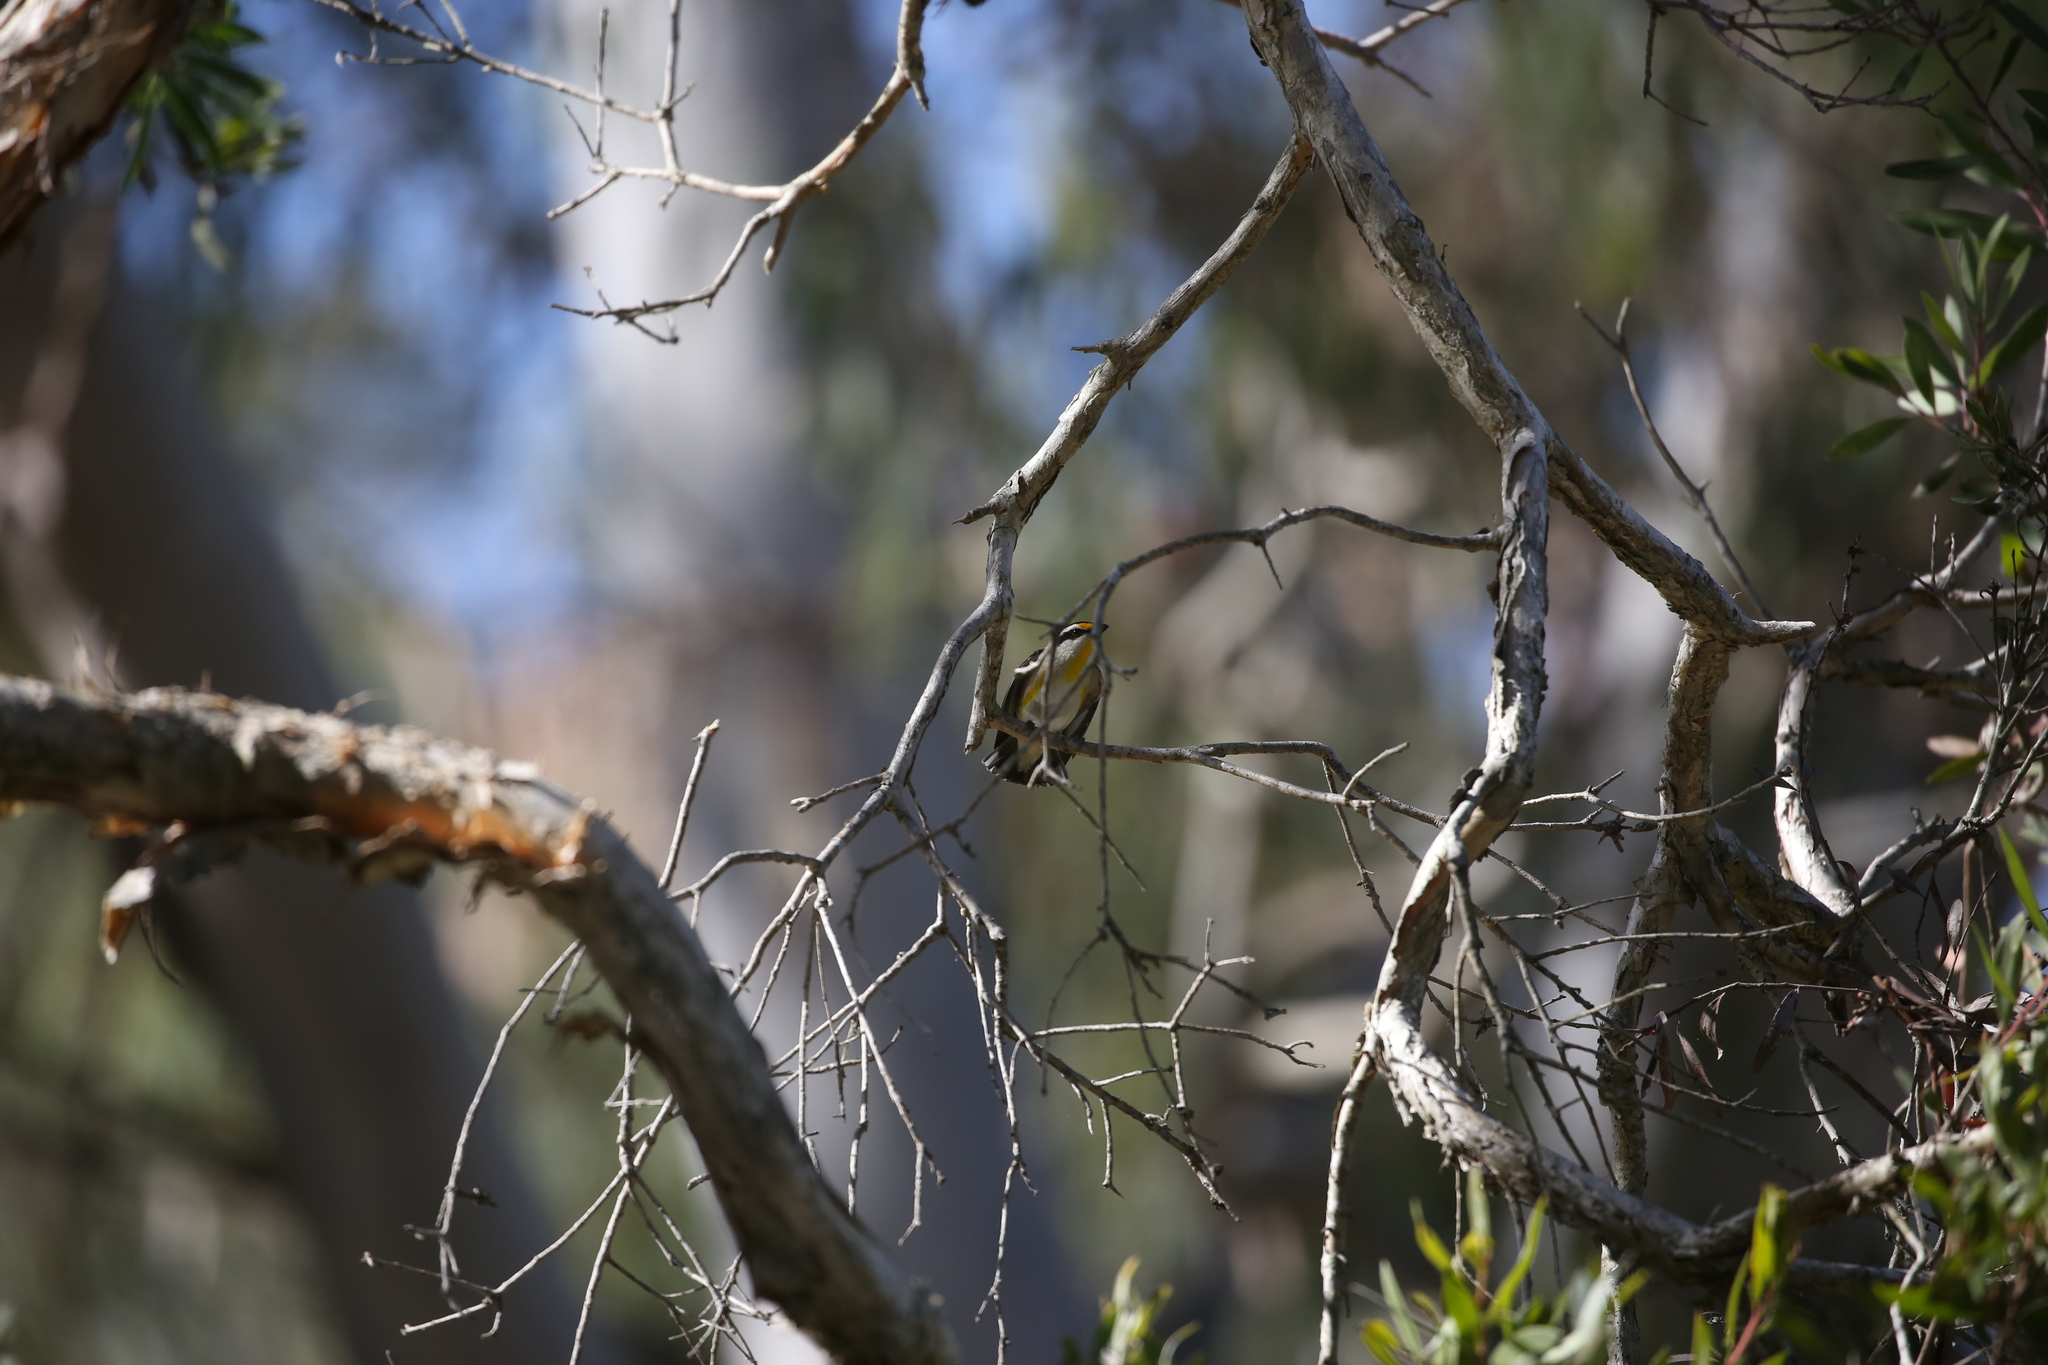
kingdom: Animalia
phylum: Chordata
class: Aves
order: Passeriformes
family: Pardalotidae
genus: Pardalotus
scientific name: Pardalotus striatus
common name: Striated pardalote
